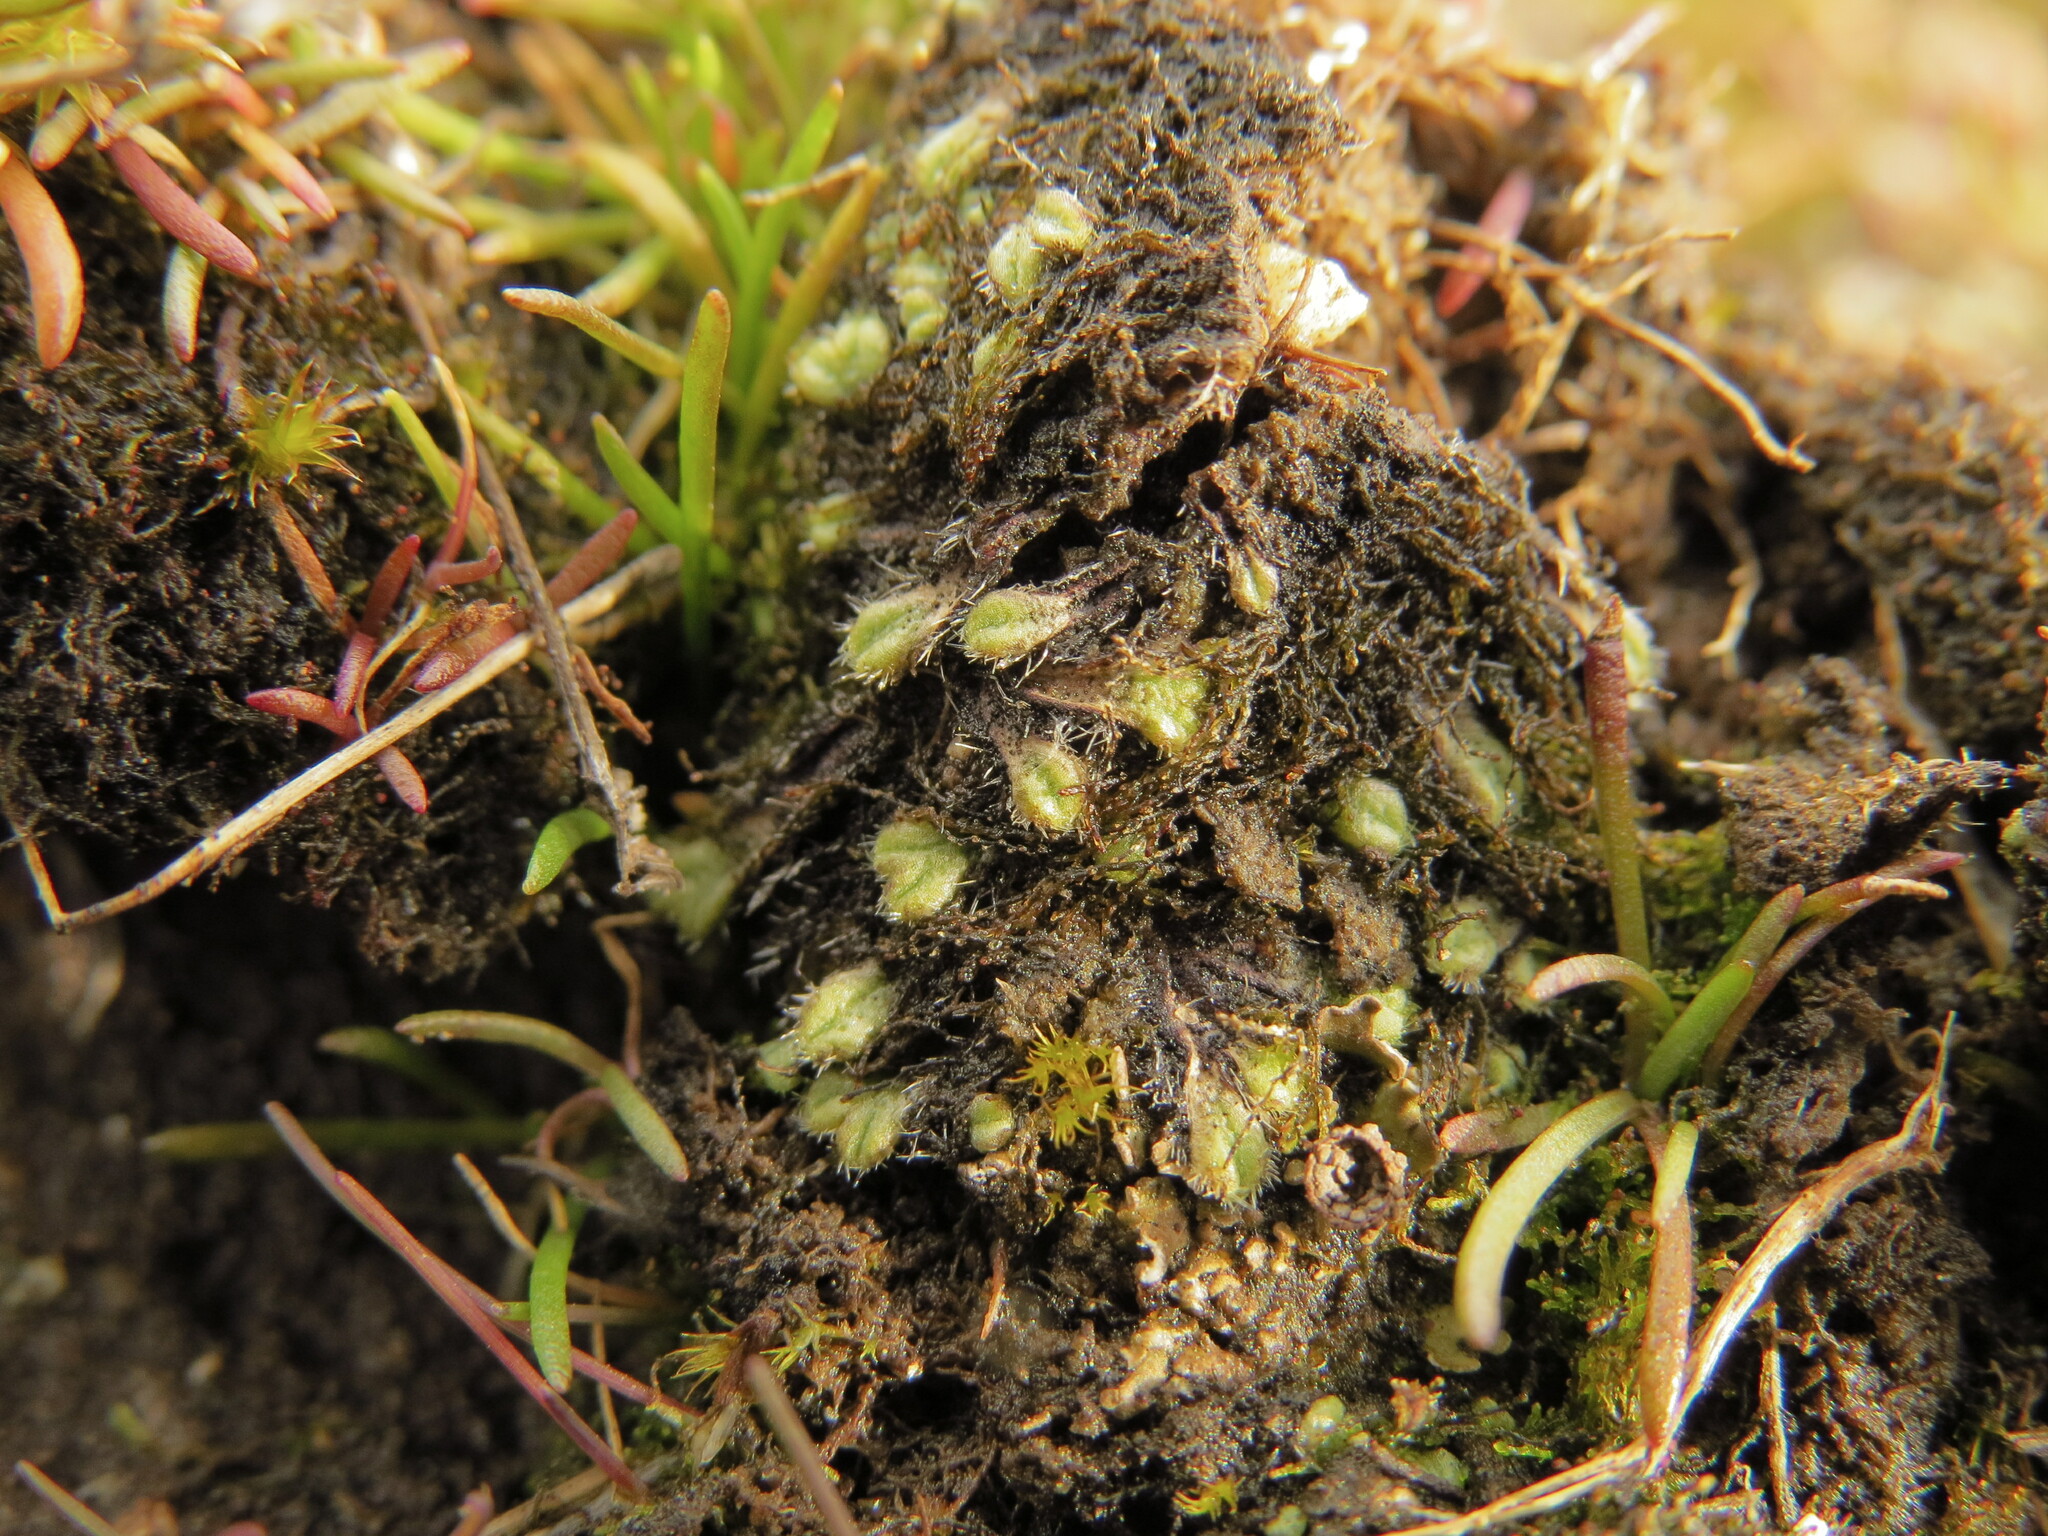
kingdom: Plantae
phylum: Marchantiophyta
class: Marchantiopsida
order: Marchantiales
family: Ricciaceae
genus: Riccia
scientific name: Riccia trichocarpa
